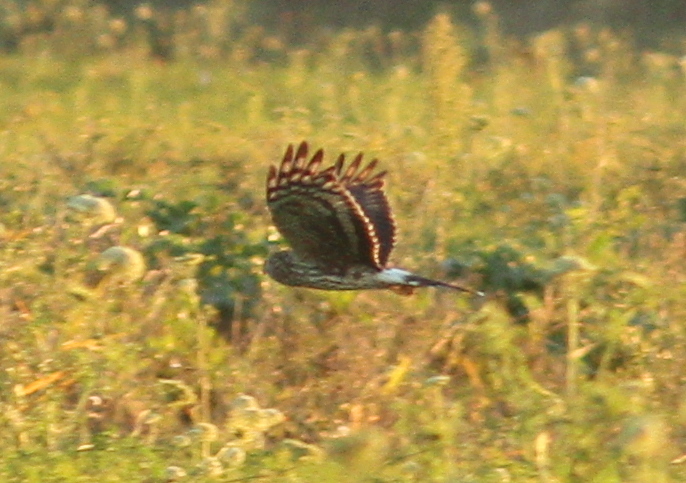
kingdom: Animalia
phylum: Chordata
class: Aves
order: Accipitriformes
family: Accipitridae
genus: Circus
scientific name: Circus cyaneus
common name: Hen harrier
